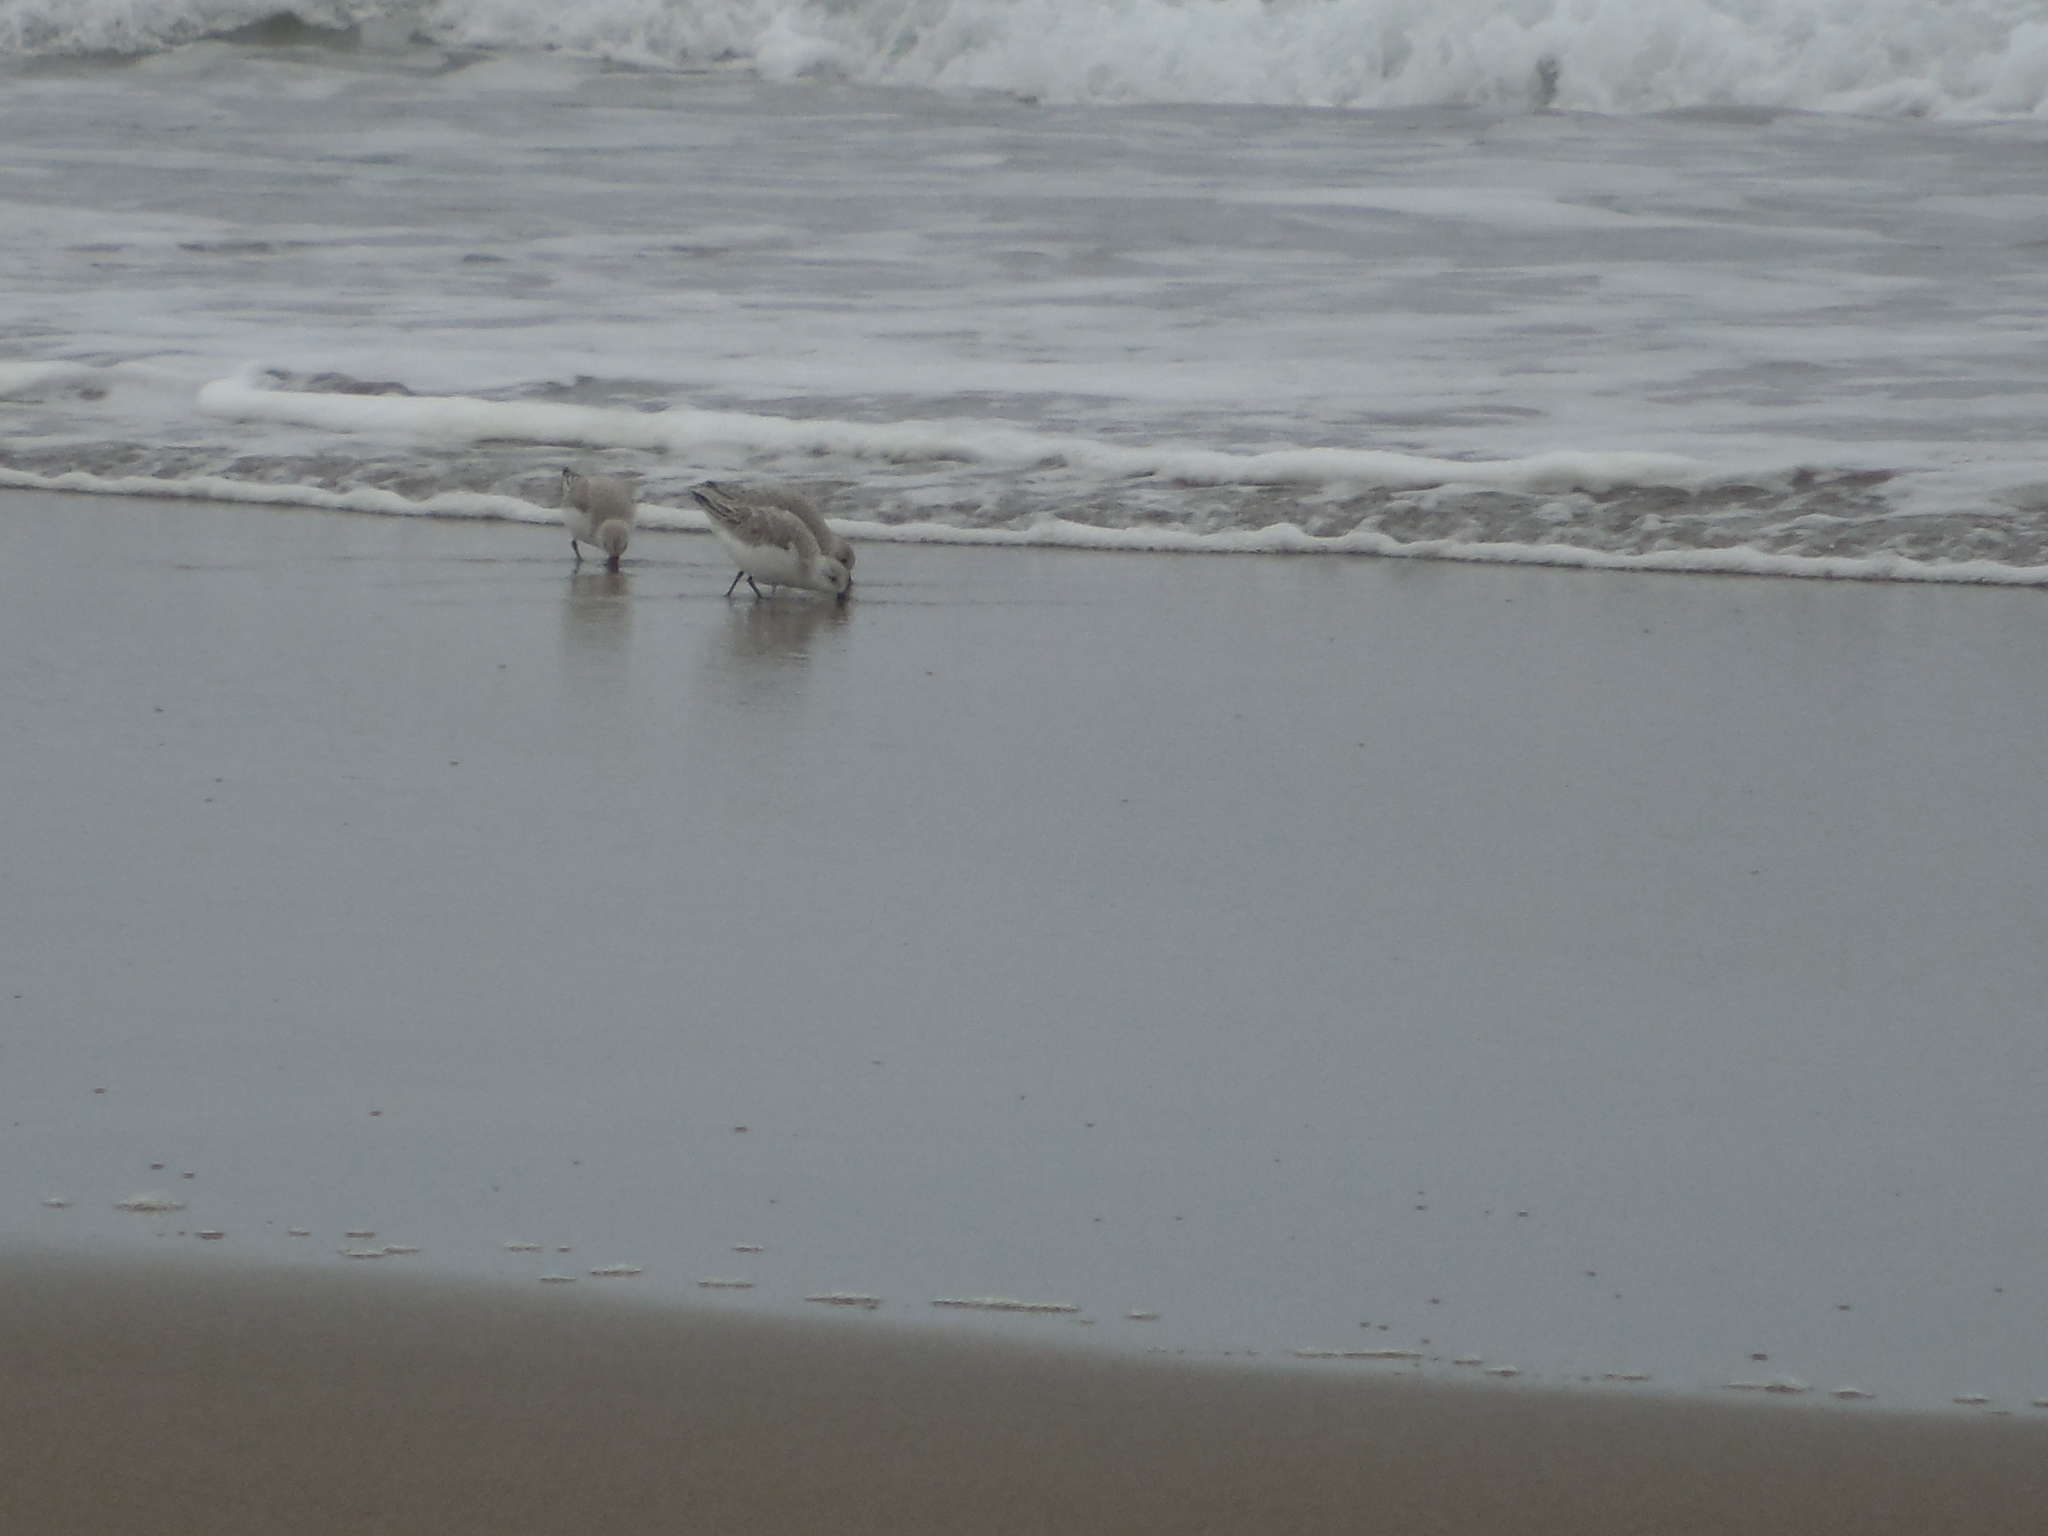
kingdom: Animalia
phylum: Chordata
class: Aves
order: Charadriiformes
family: Scolopacidae
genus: Calidris
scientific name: Calidris alba
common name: Sanderling
